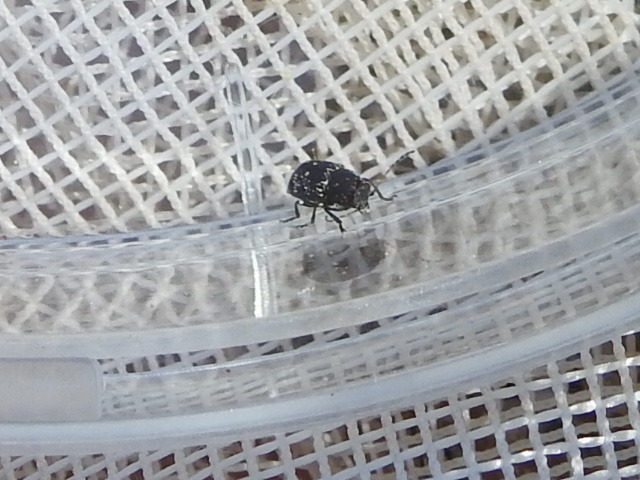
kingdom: Animalia
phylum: Arthropoda
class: Insecta
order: Coleoptera
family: Chrysomelidae
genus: Pachybrachis
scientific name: Pachybrachis stygicus
